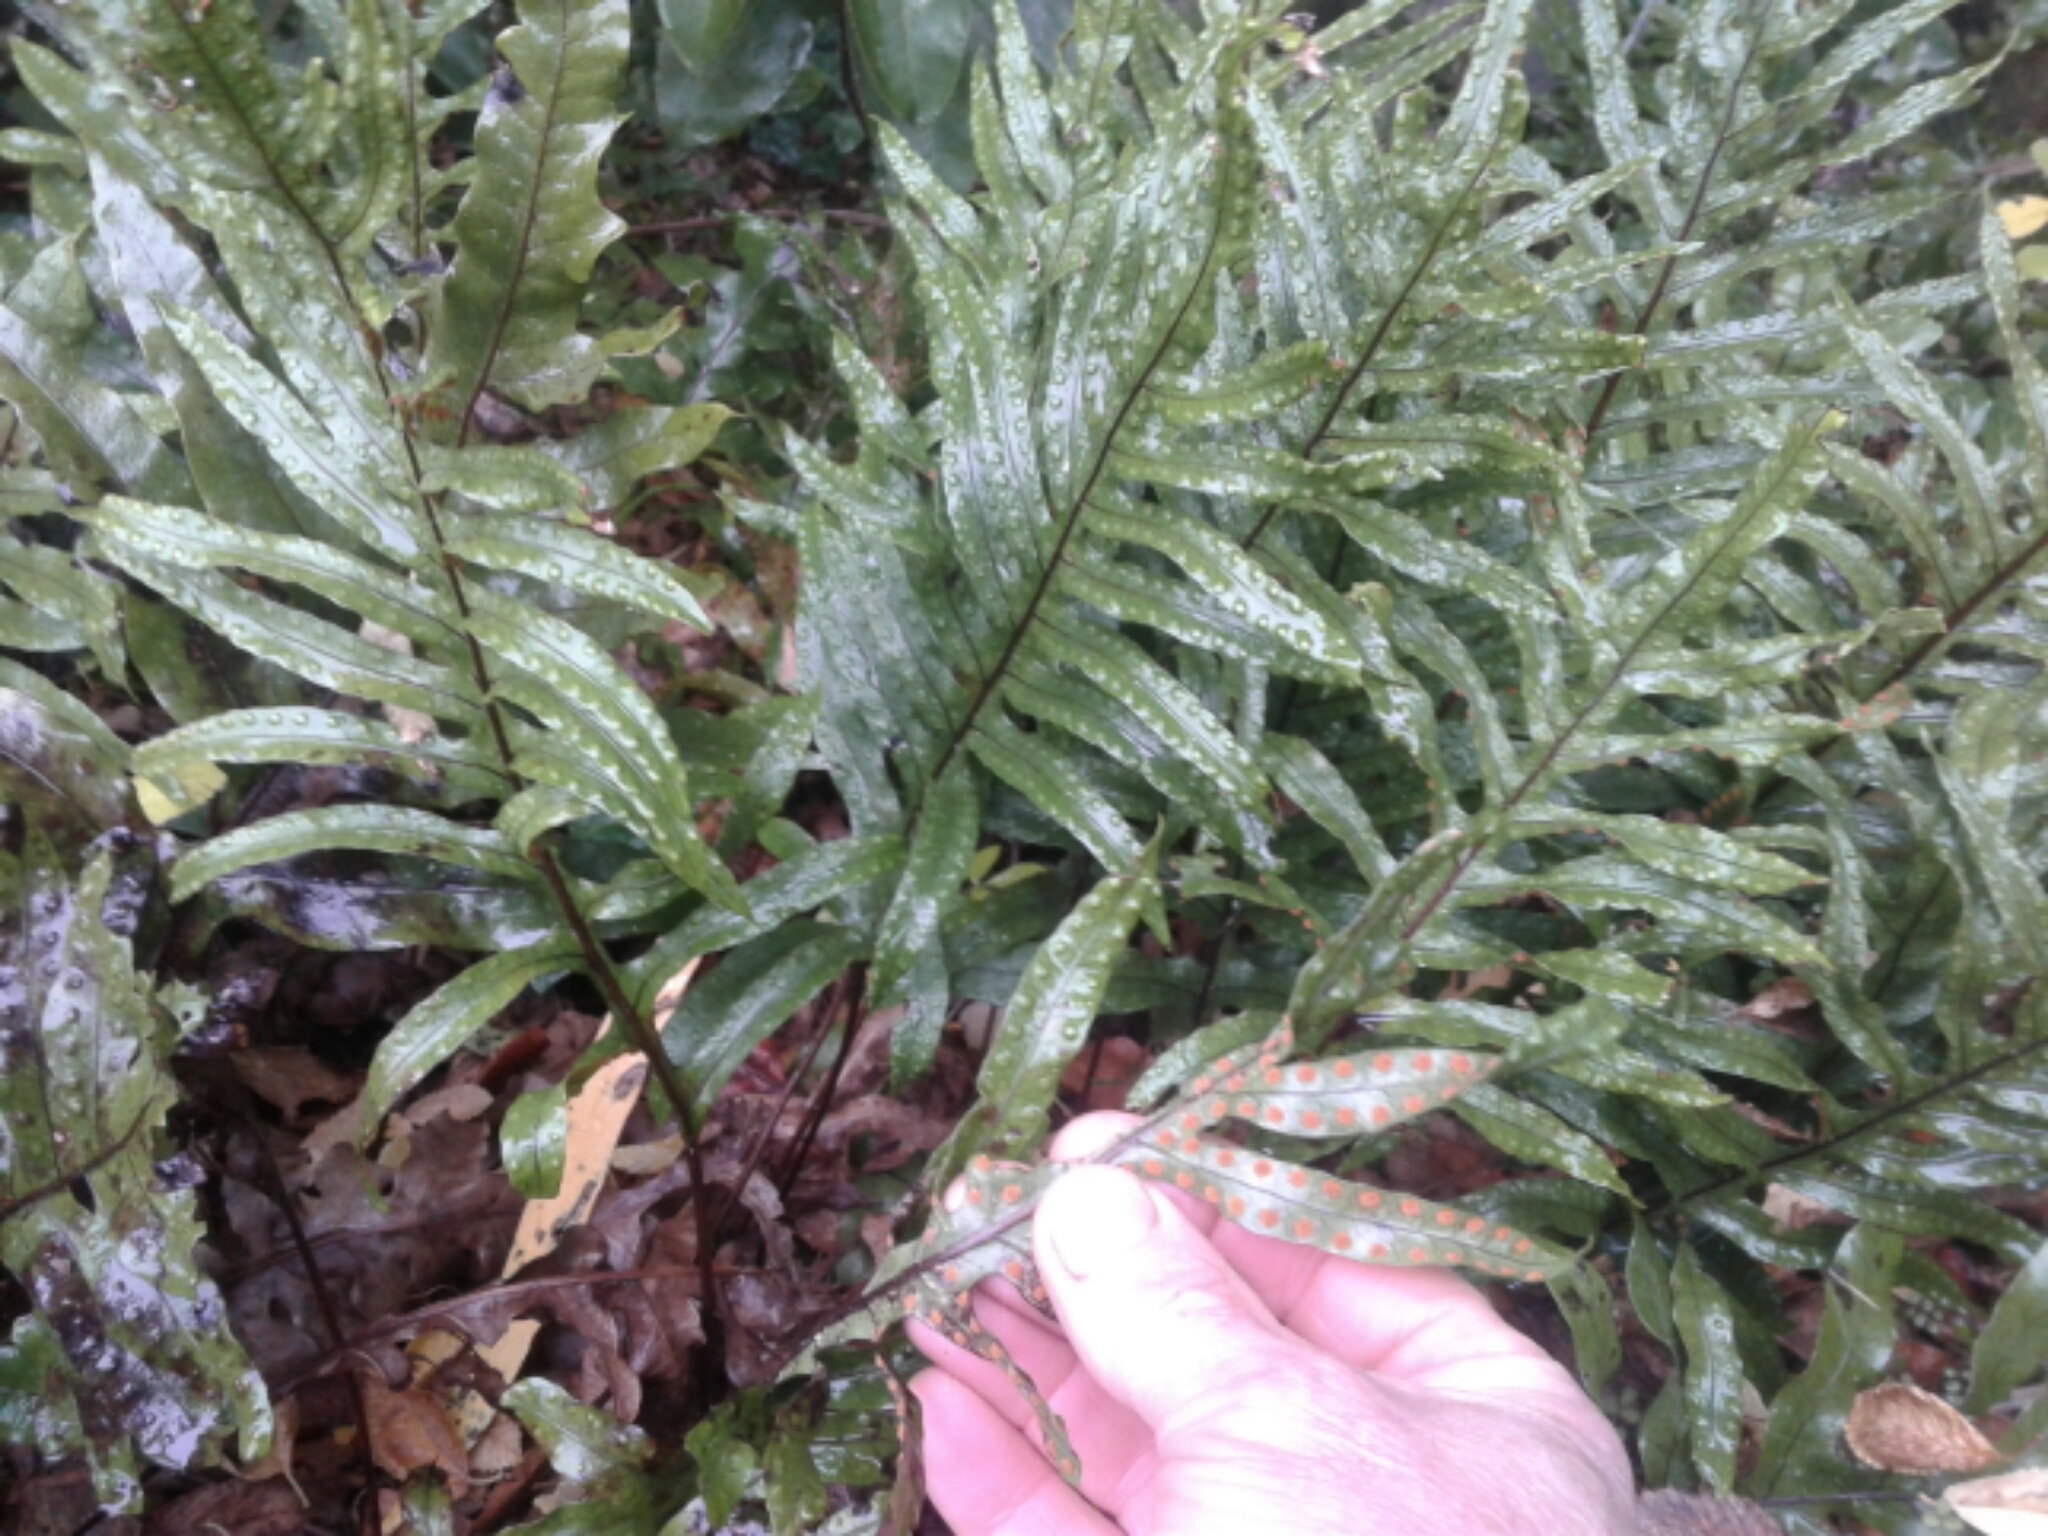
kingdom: Plantae
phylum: Tracheophyta
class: Polypodiopsida
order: Polypodiales
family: Polypodiaceae
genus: Lecanopteris
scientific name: Lecanopteris pustulata
